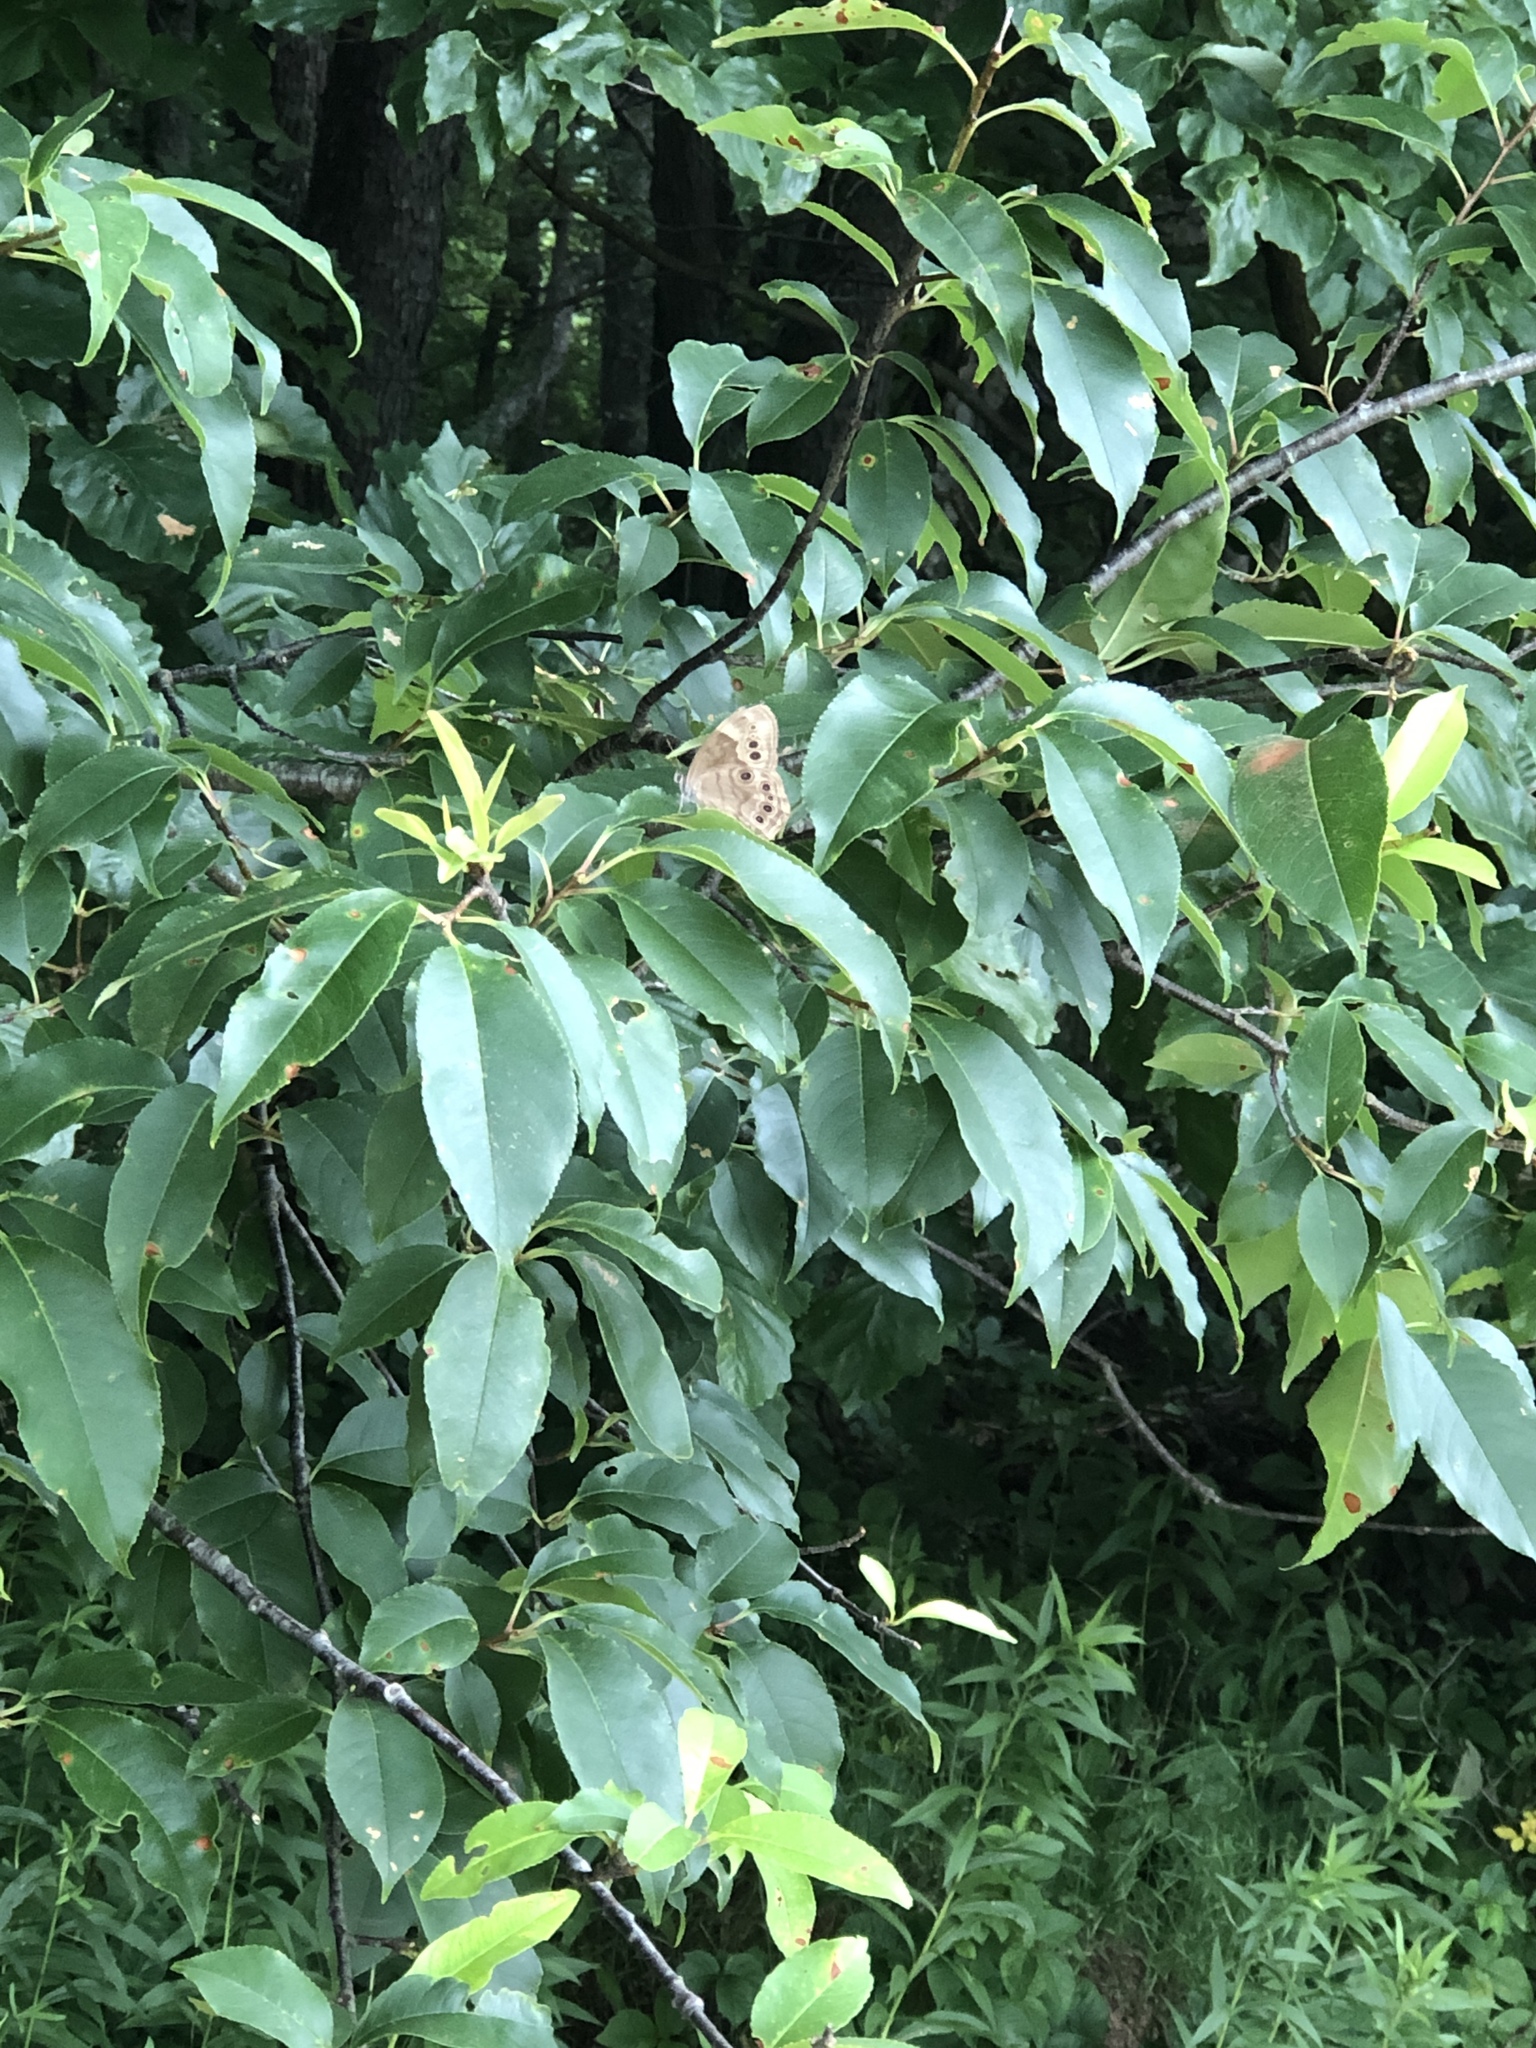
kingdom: Animalia
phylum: Arthropoda
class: Insecta
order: Lepidoptera
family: Nymphalidae
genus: Lethe
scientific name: Lethe anthedon
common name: Northern pearly-eye
